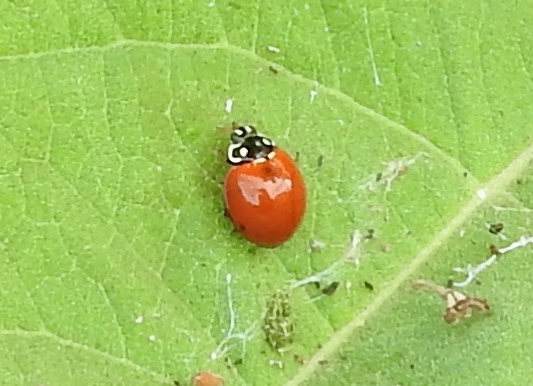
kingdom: Animalia
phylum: Arthropoda
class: Insecta
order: Coleoptera
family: Coccinellidae
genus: Cycloneda
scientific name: Cycloneda sanguinea
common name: Ladybird beetle
